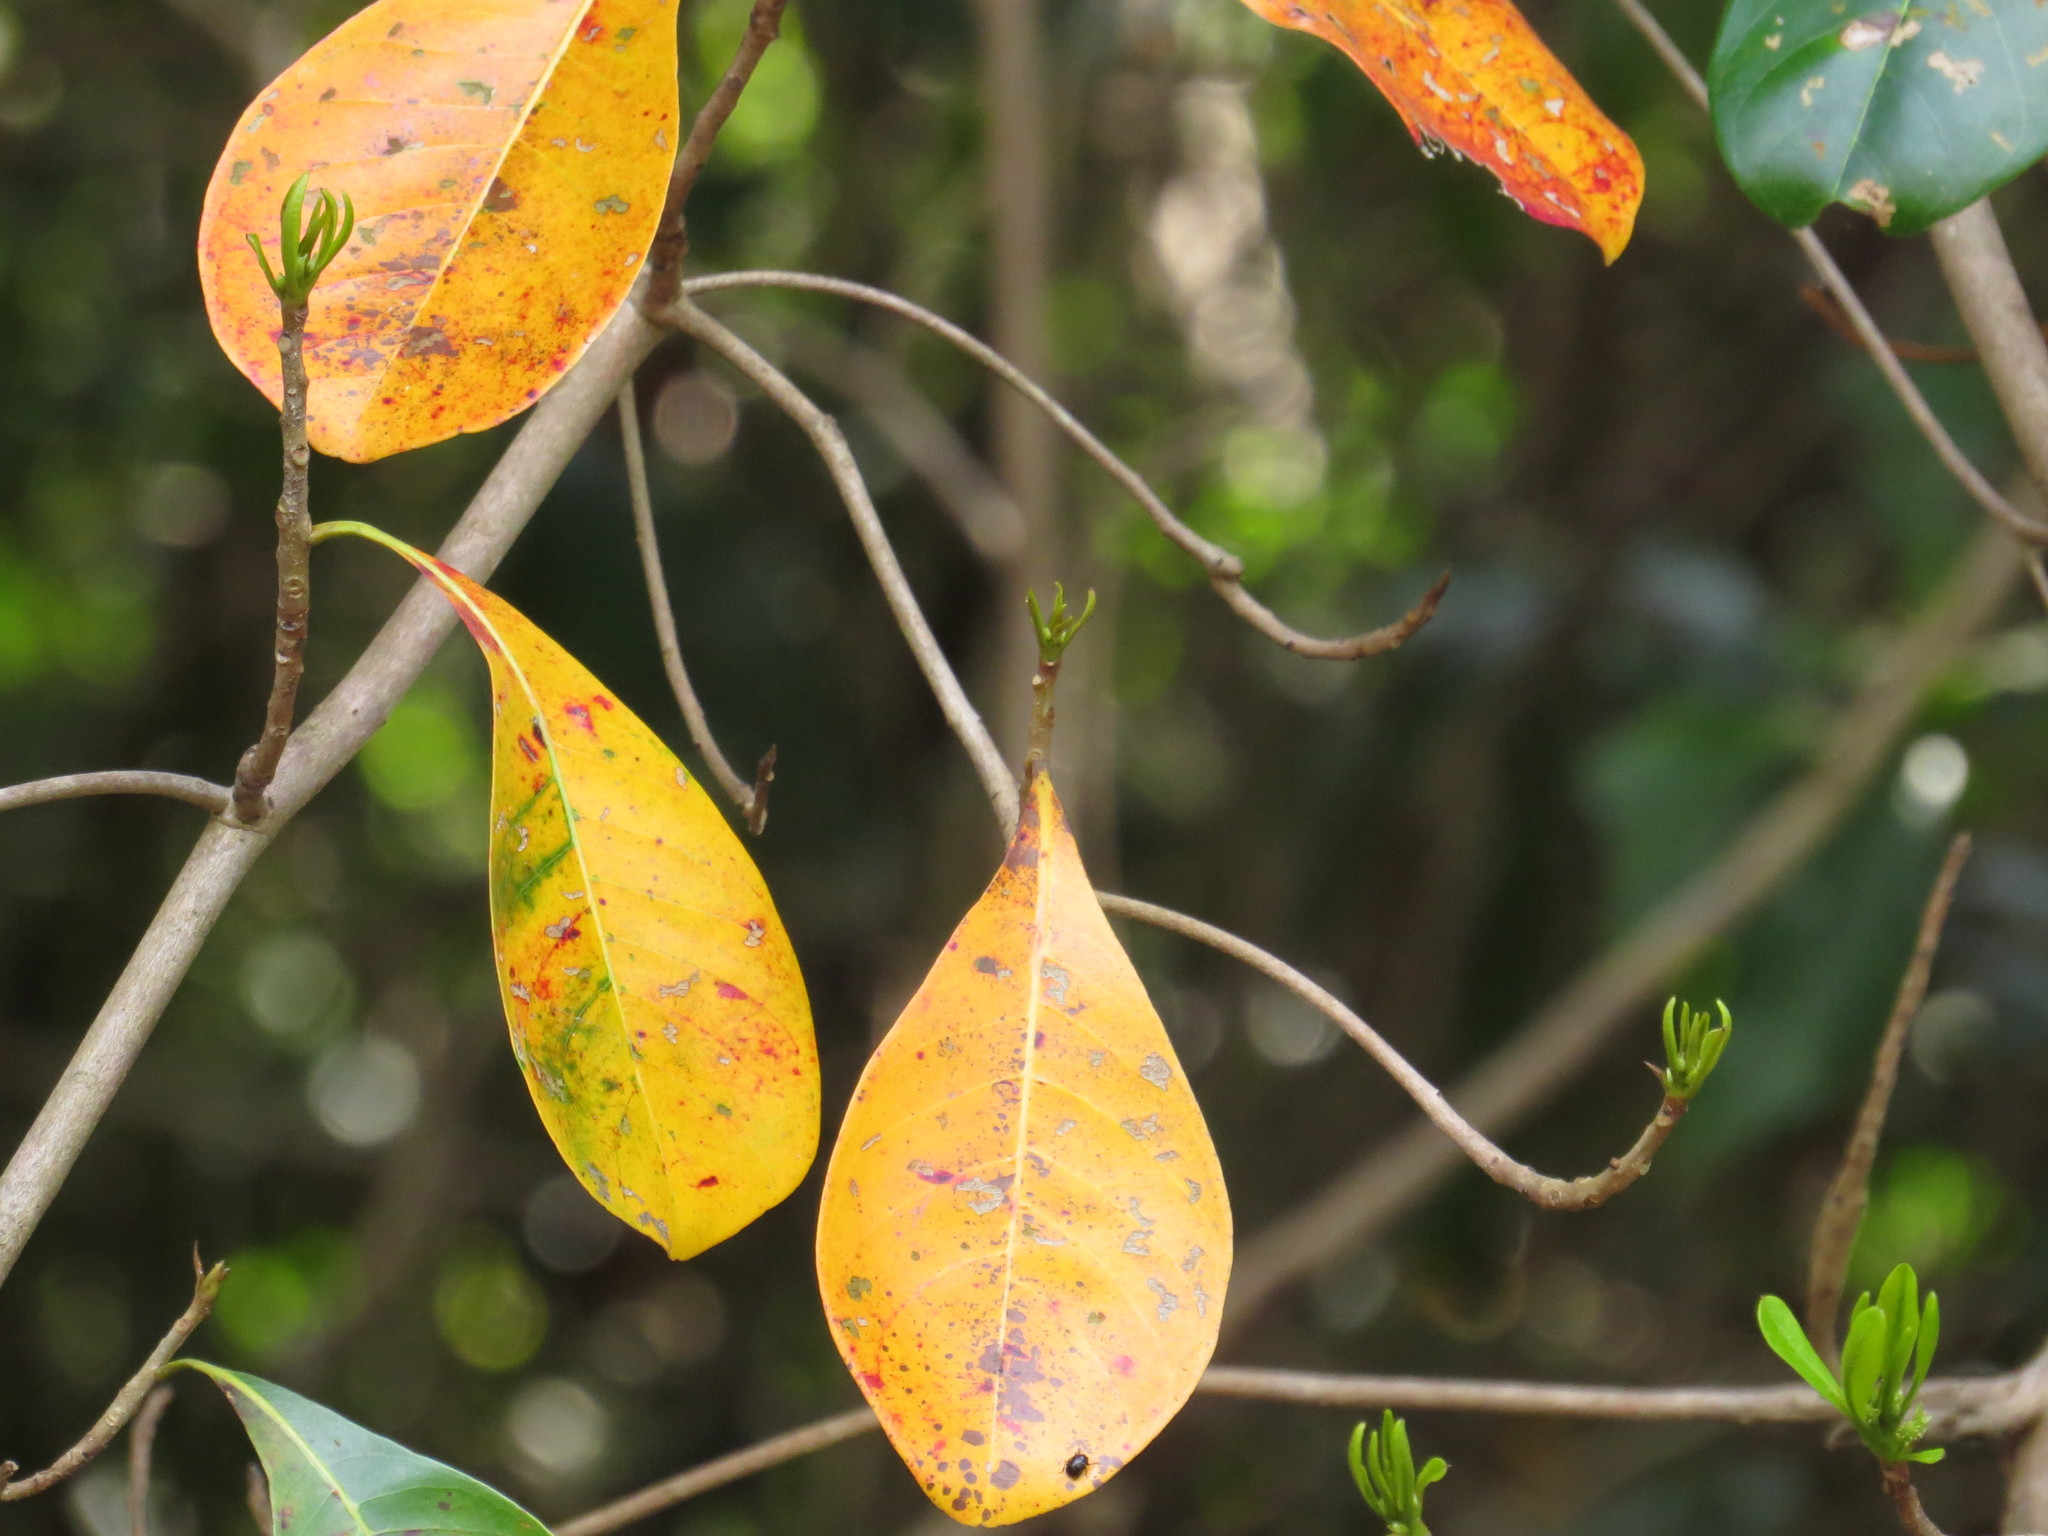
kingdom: Plantae
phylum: Tracheophyta
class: Magnoliopsida
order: Myrtales
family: Combretaceae
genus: Terminalia
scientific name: Terminalia microcarpa
